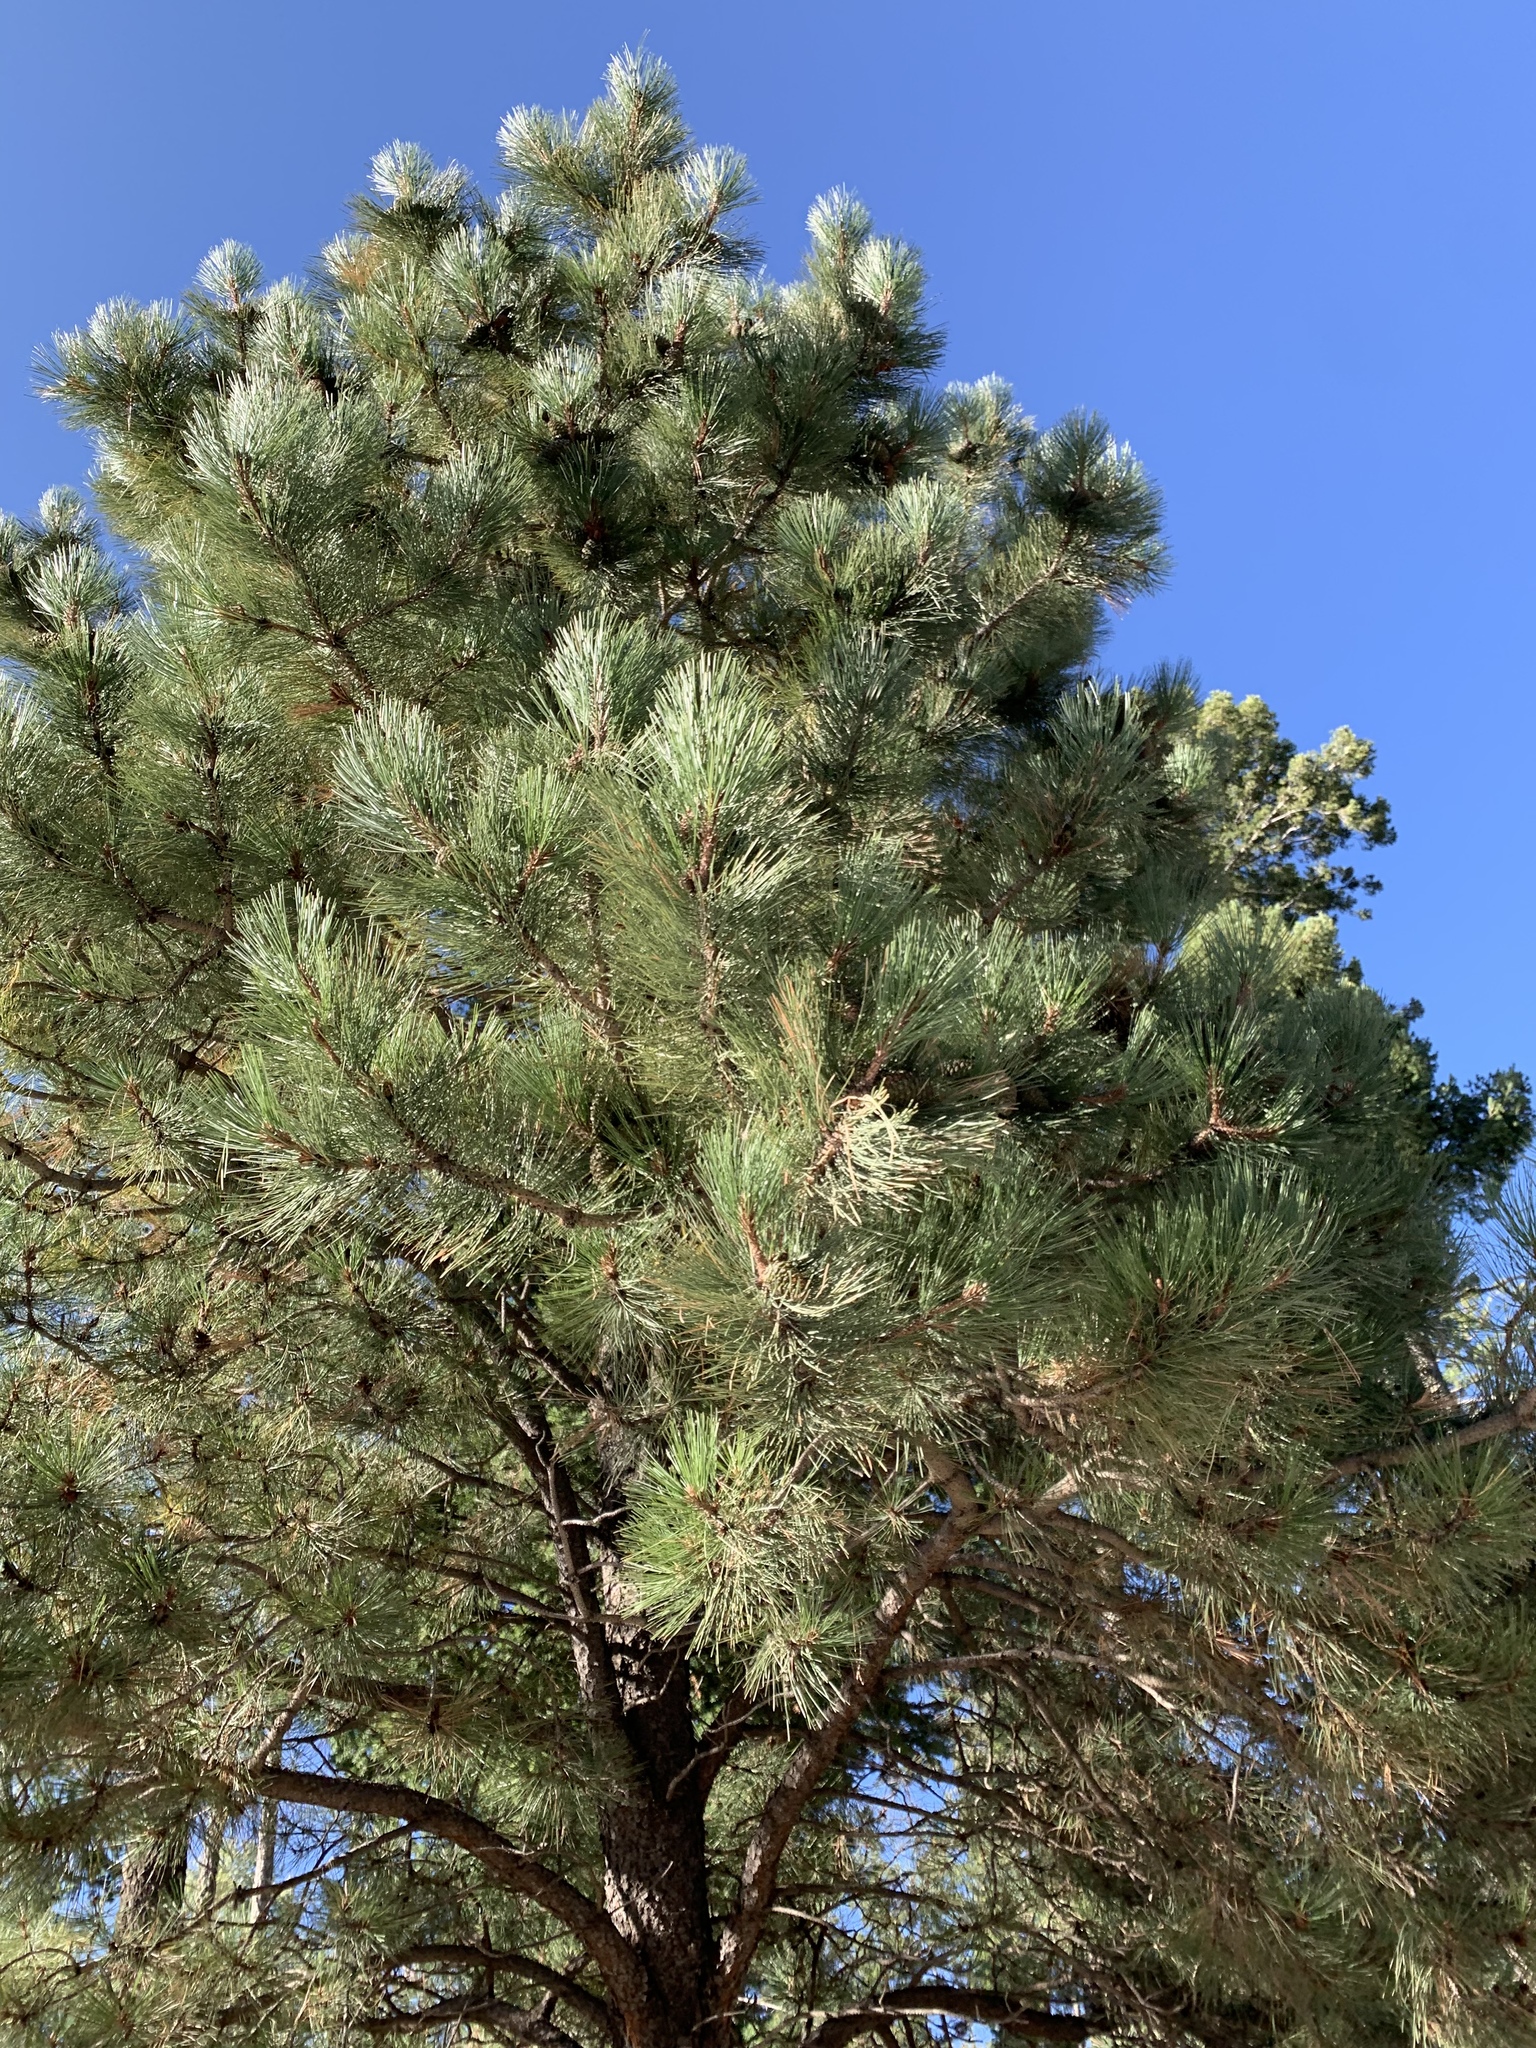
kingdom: Plantae
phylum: Tracheophyta
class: Pinopsida
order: Pinales
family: Pinaceae
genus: Pinus
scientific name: Pinus ponderosa
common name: Western yellow-pine
